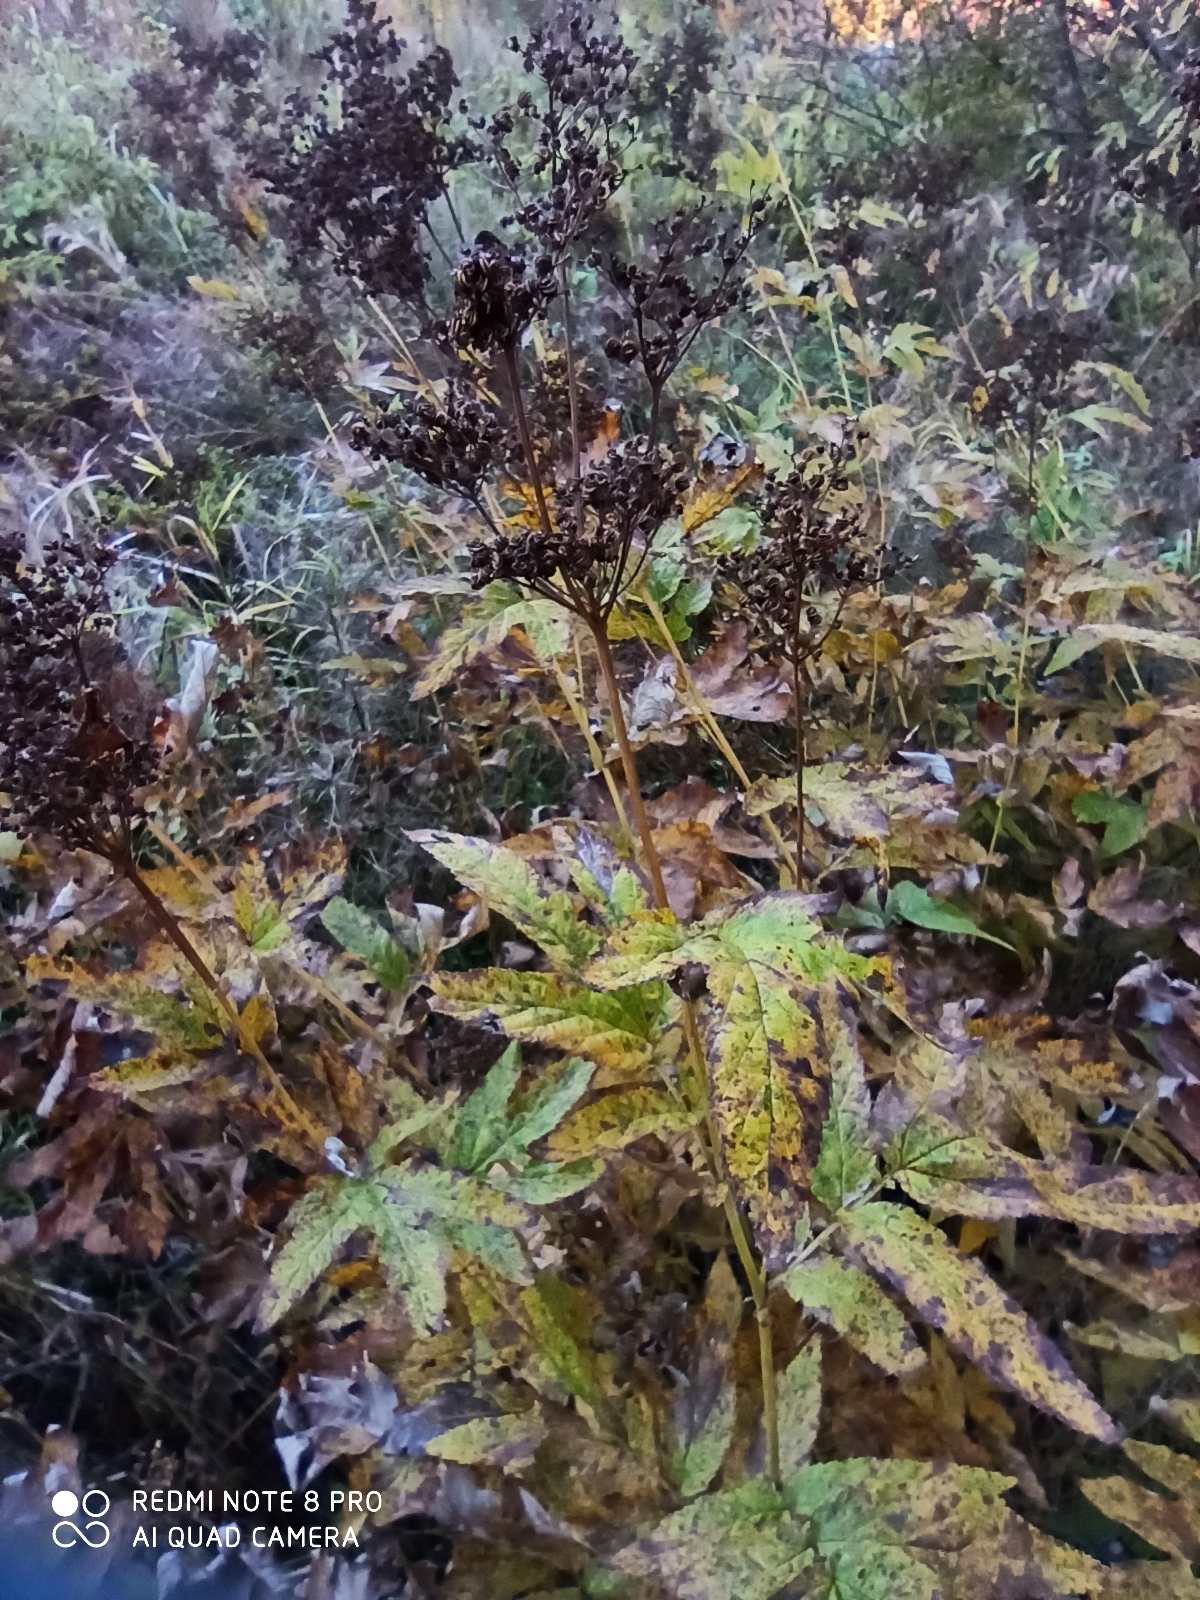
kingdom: Plantae
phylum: Tracheophyta
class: Magnoliopsida
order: Rosales
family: Rosaceae
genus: Filipendula
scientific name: Filipendula ulmaria
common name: Meadowsweet
